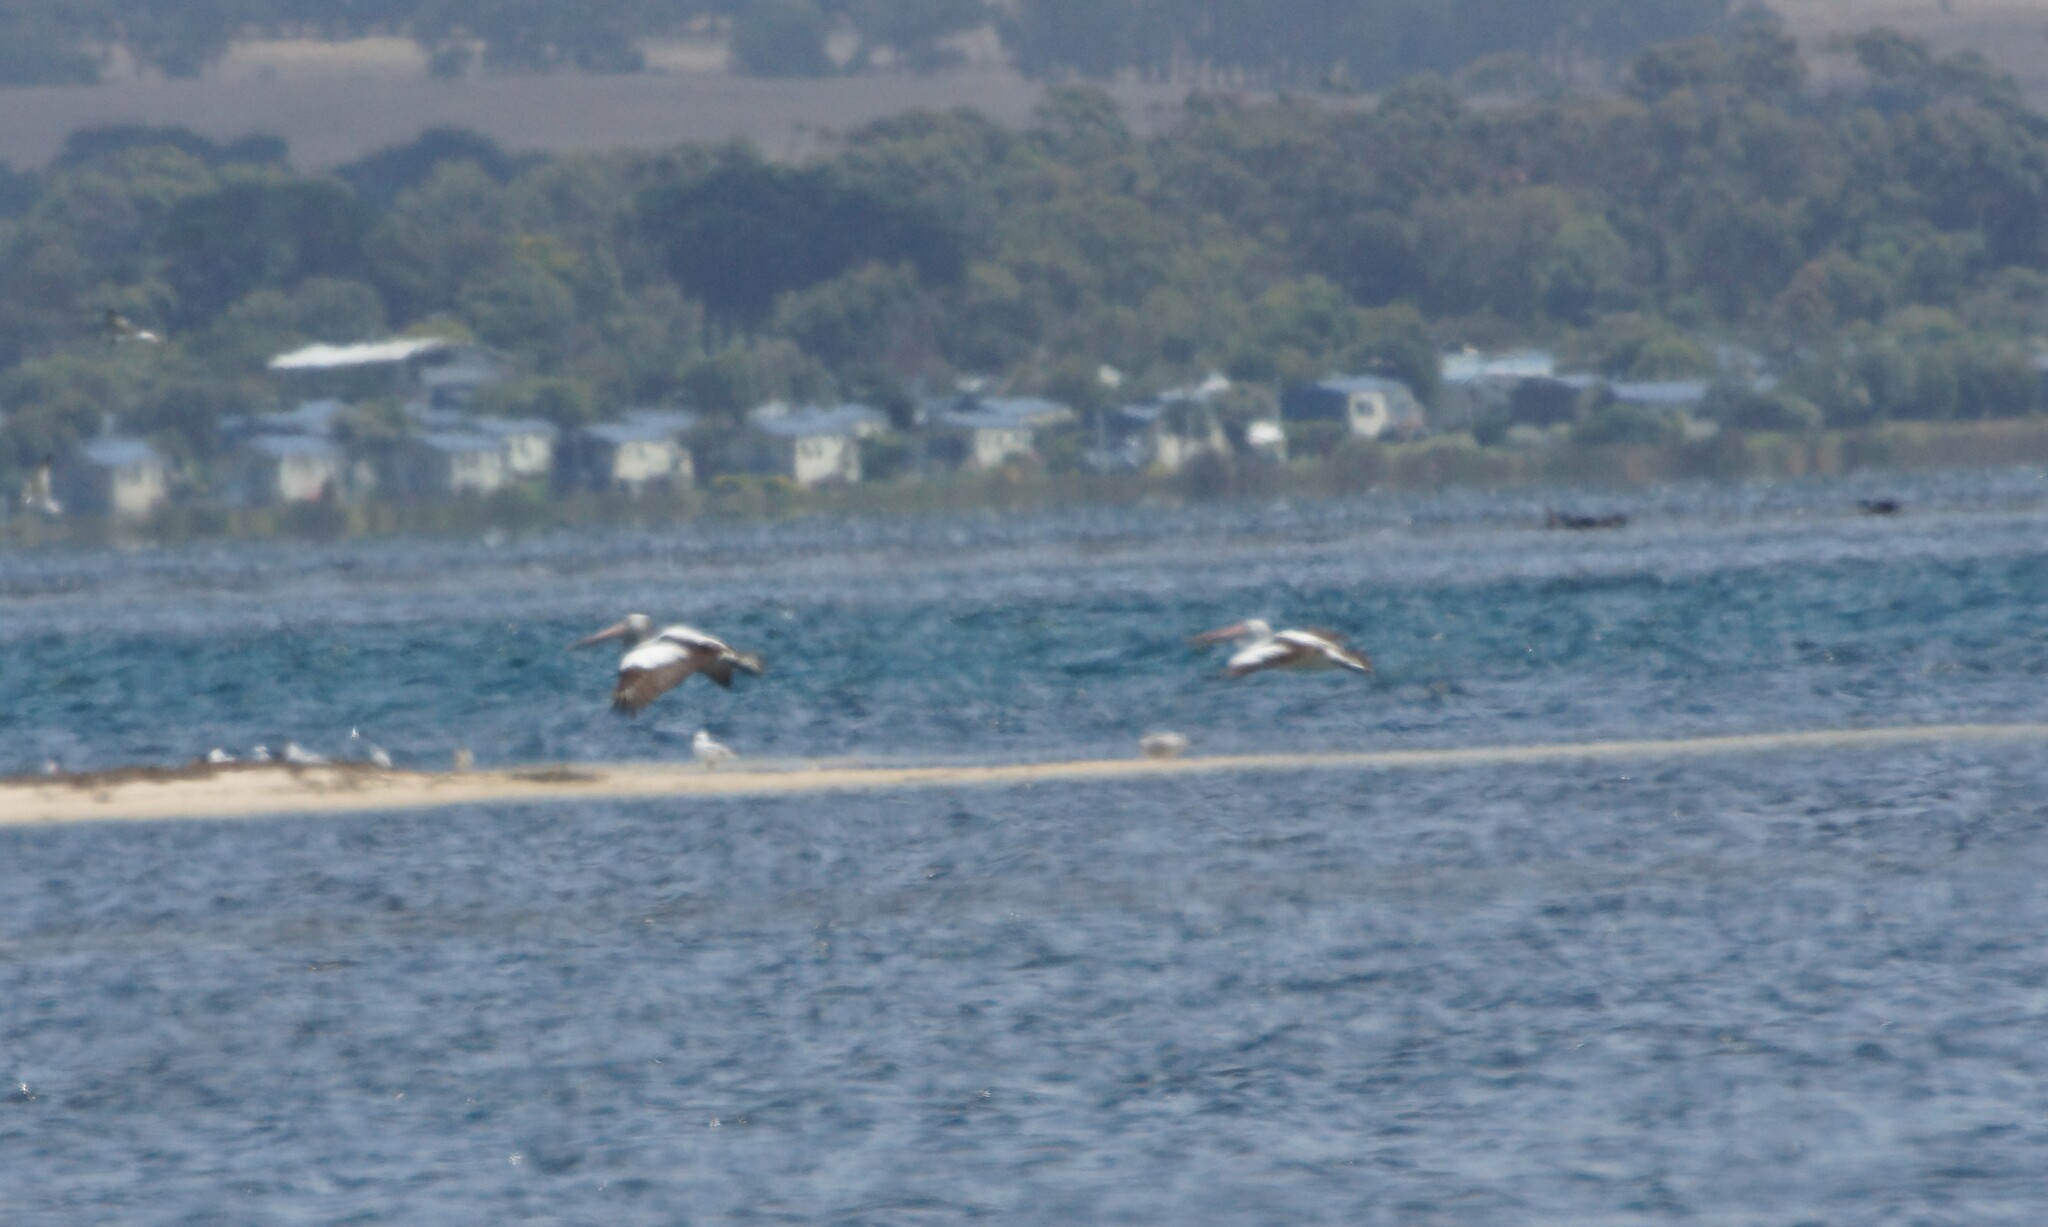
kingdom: Animalia
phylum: Chordata
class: Aves
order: Pelecaniformes
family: Pelecanidae
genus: Pelecanus
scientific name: Pelecanus conspicillatus
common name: Australian pelican
